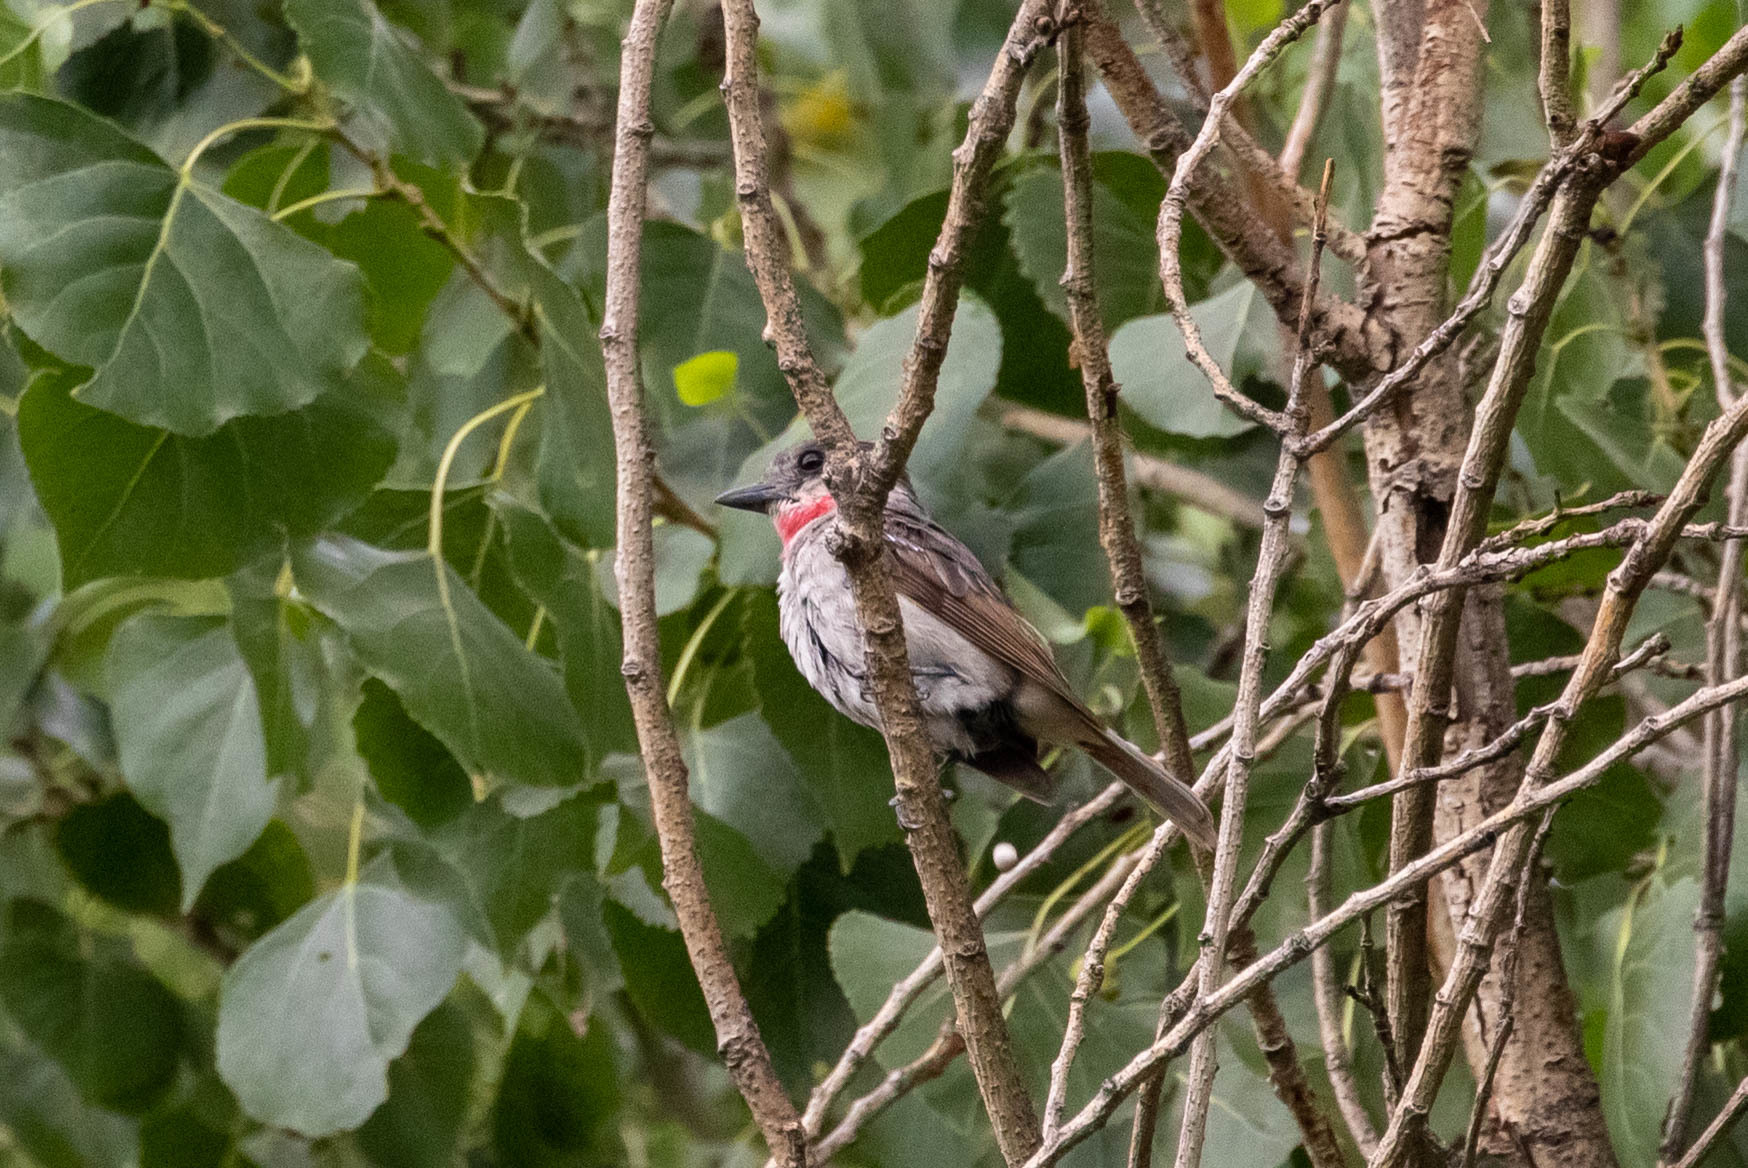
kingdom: Animalia
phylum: Chordata
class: Aves
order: Passeriformes
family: Cotingidae
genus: Pachyramphus
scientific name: Pachyramphus aglaiae
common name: Rose-throated becard
